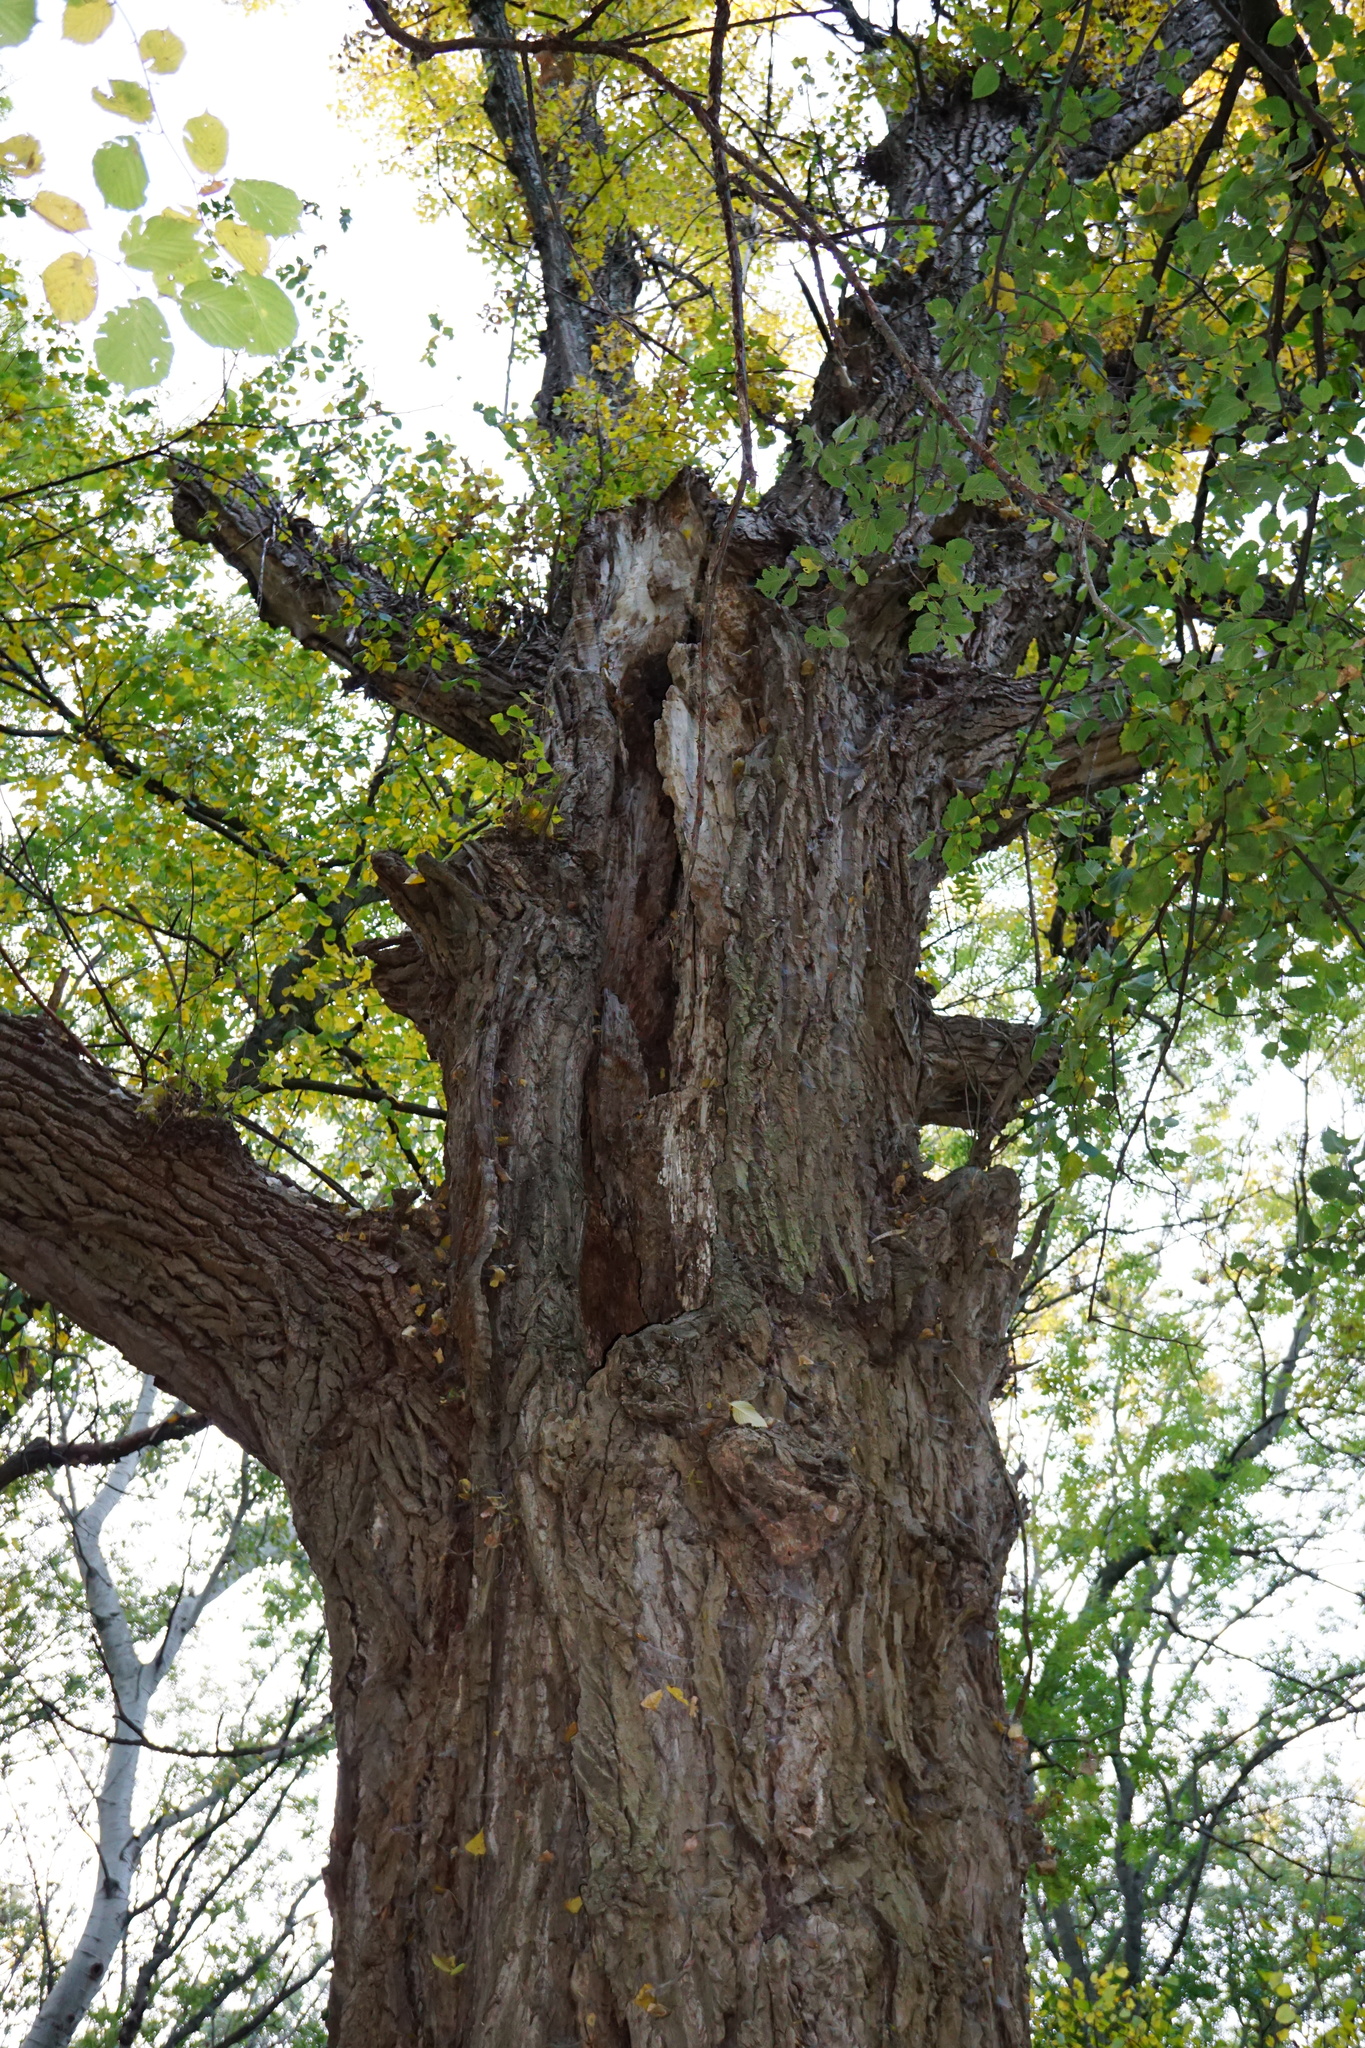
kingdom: Plantae
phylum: Tracheophyta
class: Magnoliopsida
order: Malpighiales
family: Salicaceae
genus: Populus
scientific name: Populus nigra
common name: Black poplar
